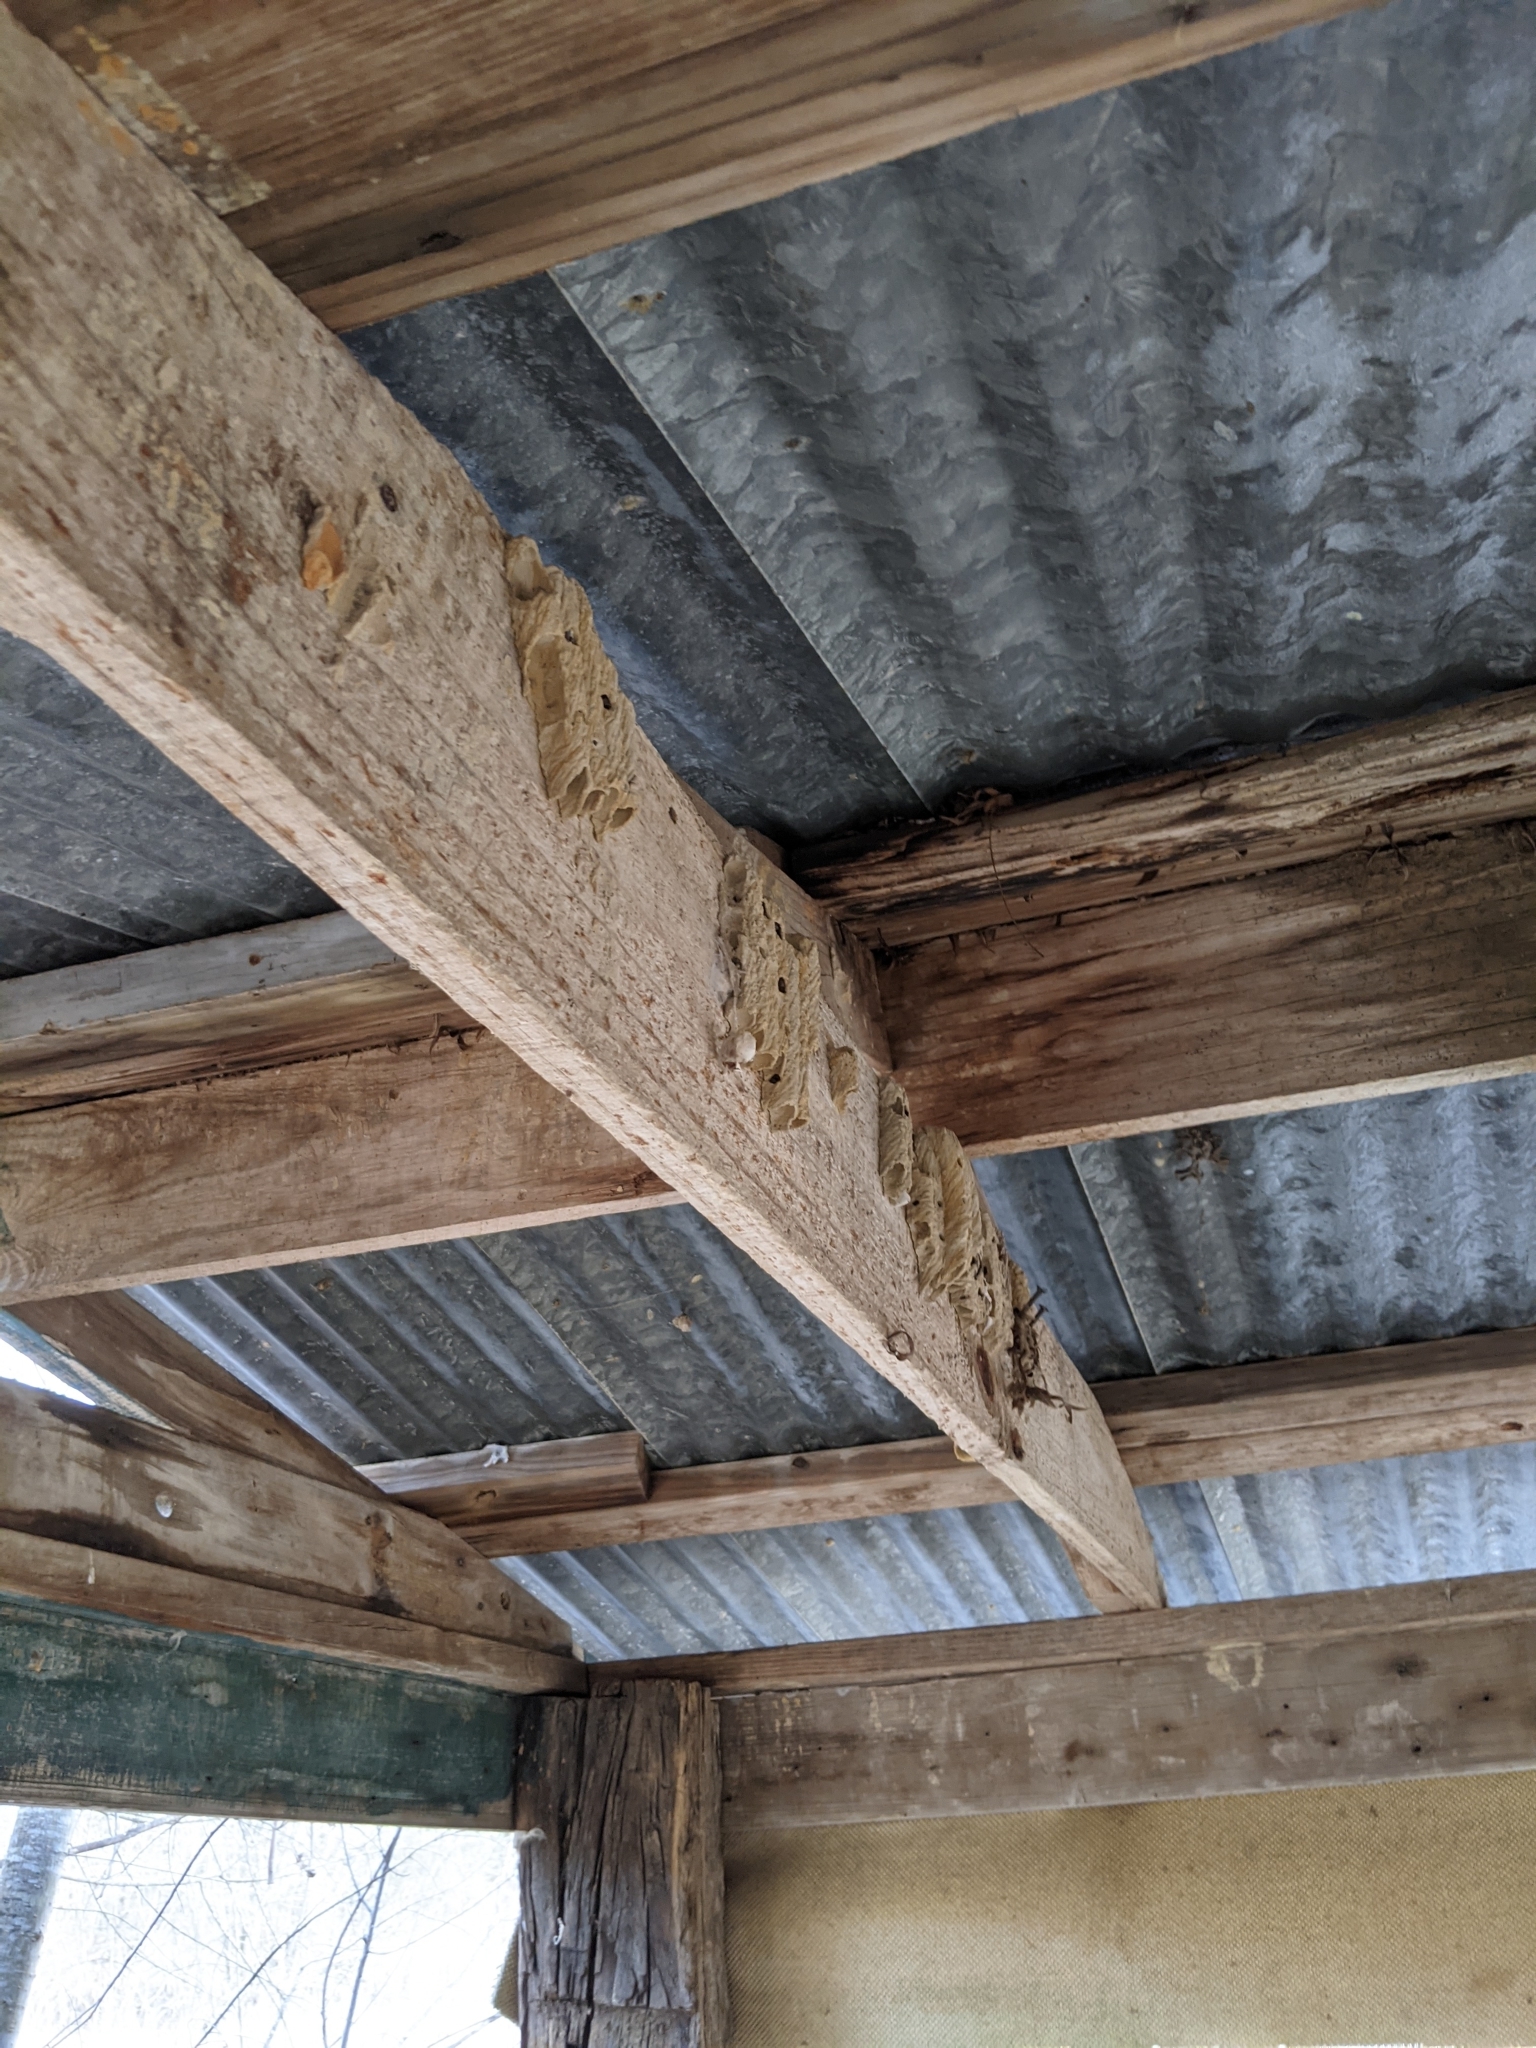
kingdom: Animalia
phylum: Arthropoda
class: Insecta
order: Hymenoptera
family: Crabronidae
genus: Trypoxylon
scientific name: Trypoxylon politum
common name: Organ-pipe mud-dauber wasp
